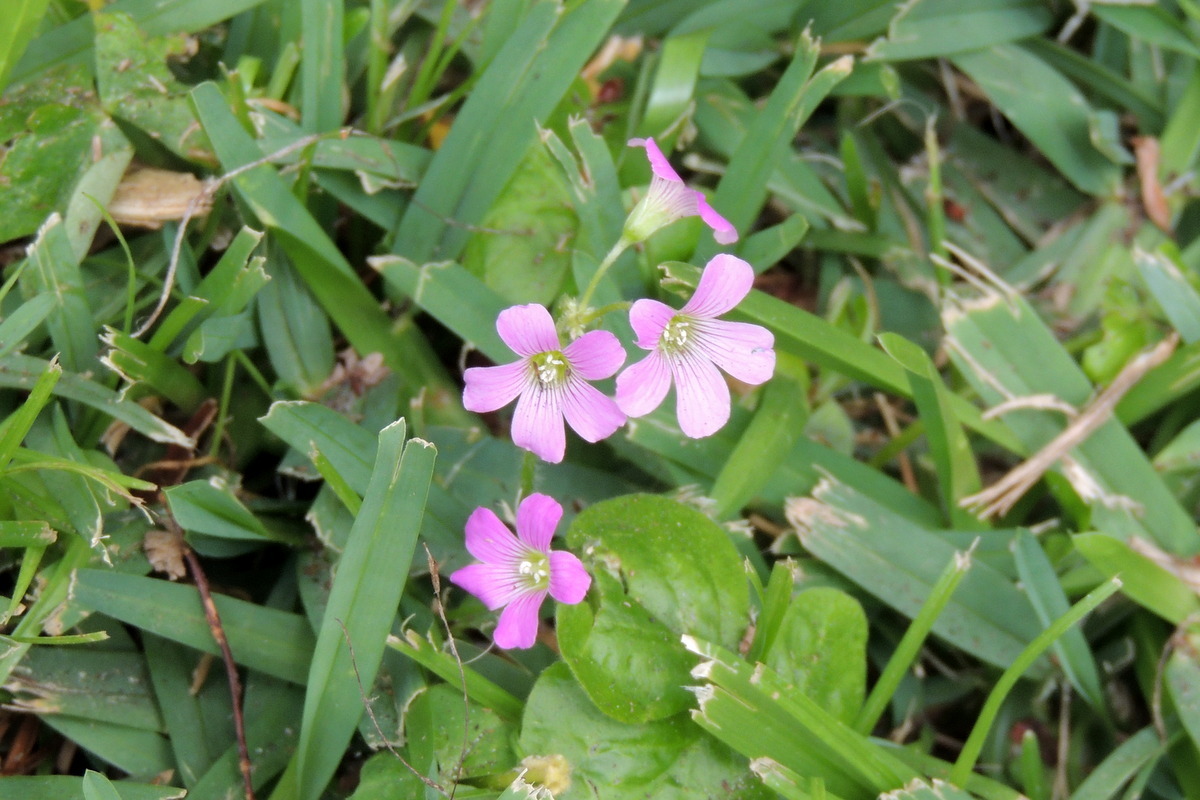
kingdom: Plantae
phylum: Tracheophyta
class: Magnoliopsida
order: Oxalidales
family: Oxalidaceae
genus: Oxalis
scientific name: Oxalis debilis
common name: Large-flowered pink-sorrel
